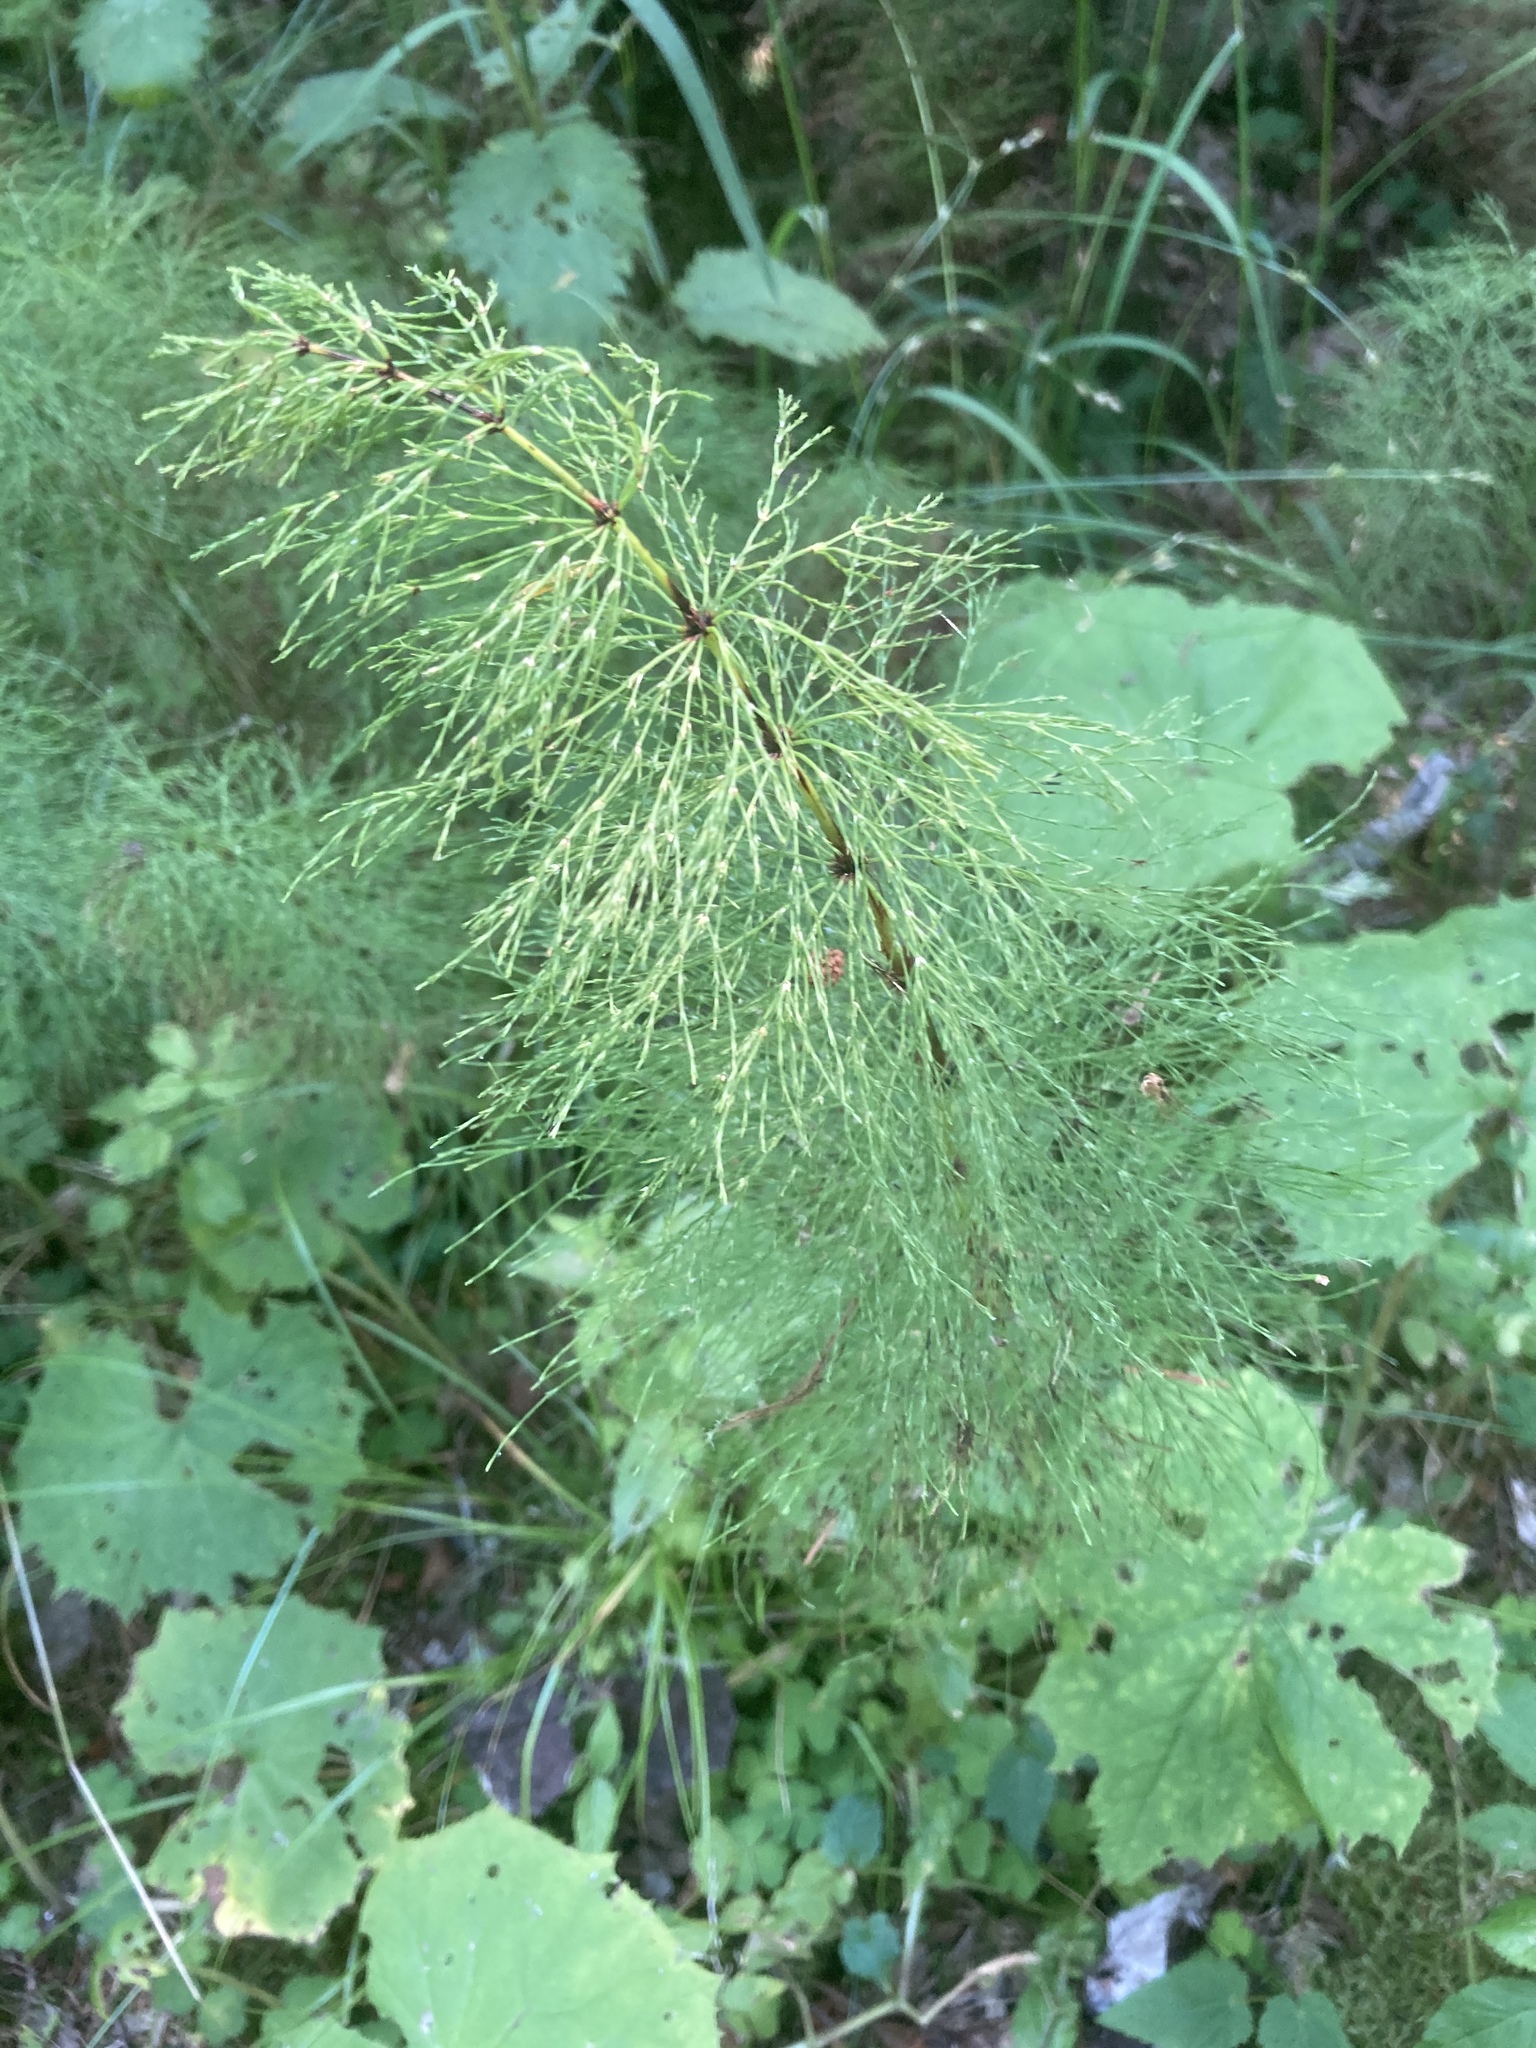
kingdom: Plantae
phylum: Tracheophyta
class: Polypodiopsida
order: Equisetales
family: Equisetaceae
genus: Equisetum
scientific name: Equisetum sylvaticum
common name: Wood horsetail
